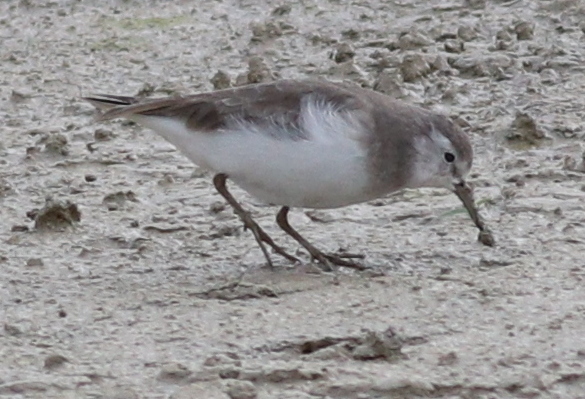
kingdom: Animalia
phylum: Chordata
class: Aves
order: Charadriiformes
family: Scolopacidae
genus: Calidris
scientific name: Calidris temminckii
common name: Temminck's stint
